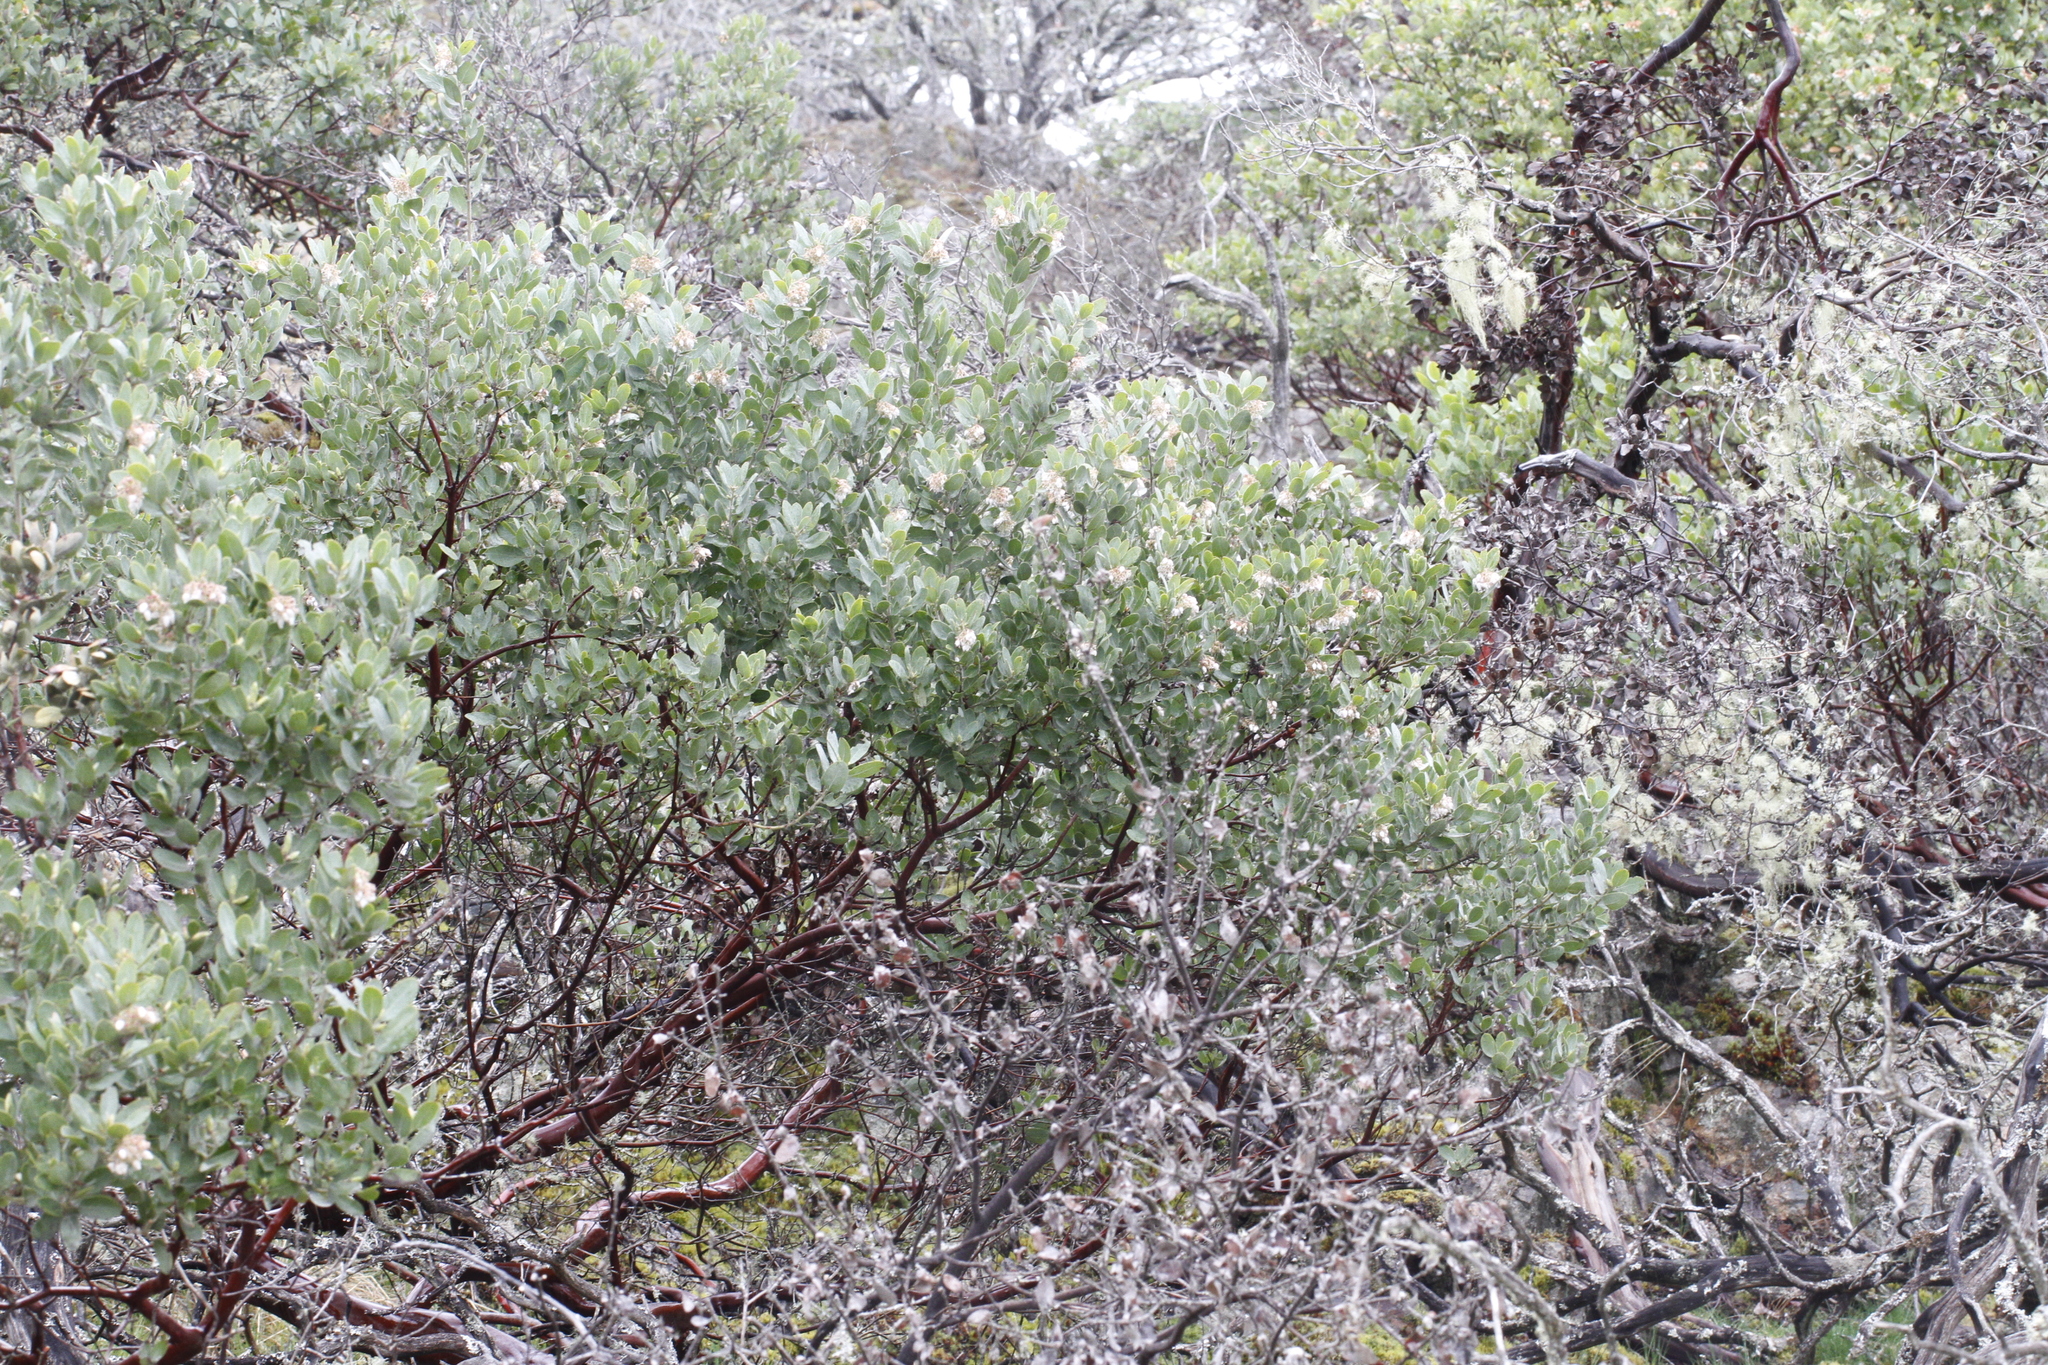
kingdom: Plantae
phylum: Tracheophyta
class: Magnoliopsida
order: Ericales
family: Ericaceae
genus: Arctostaphylos
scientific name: Arctostaphylos columbiana
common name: Bristly bearberry
